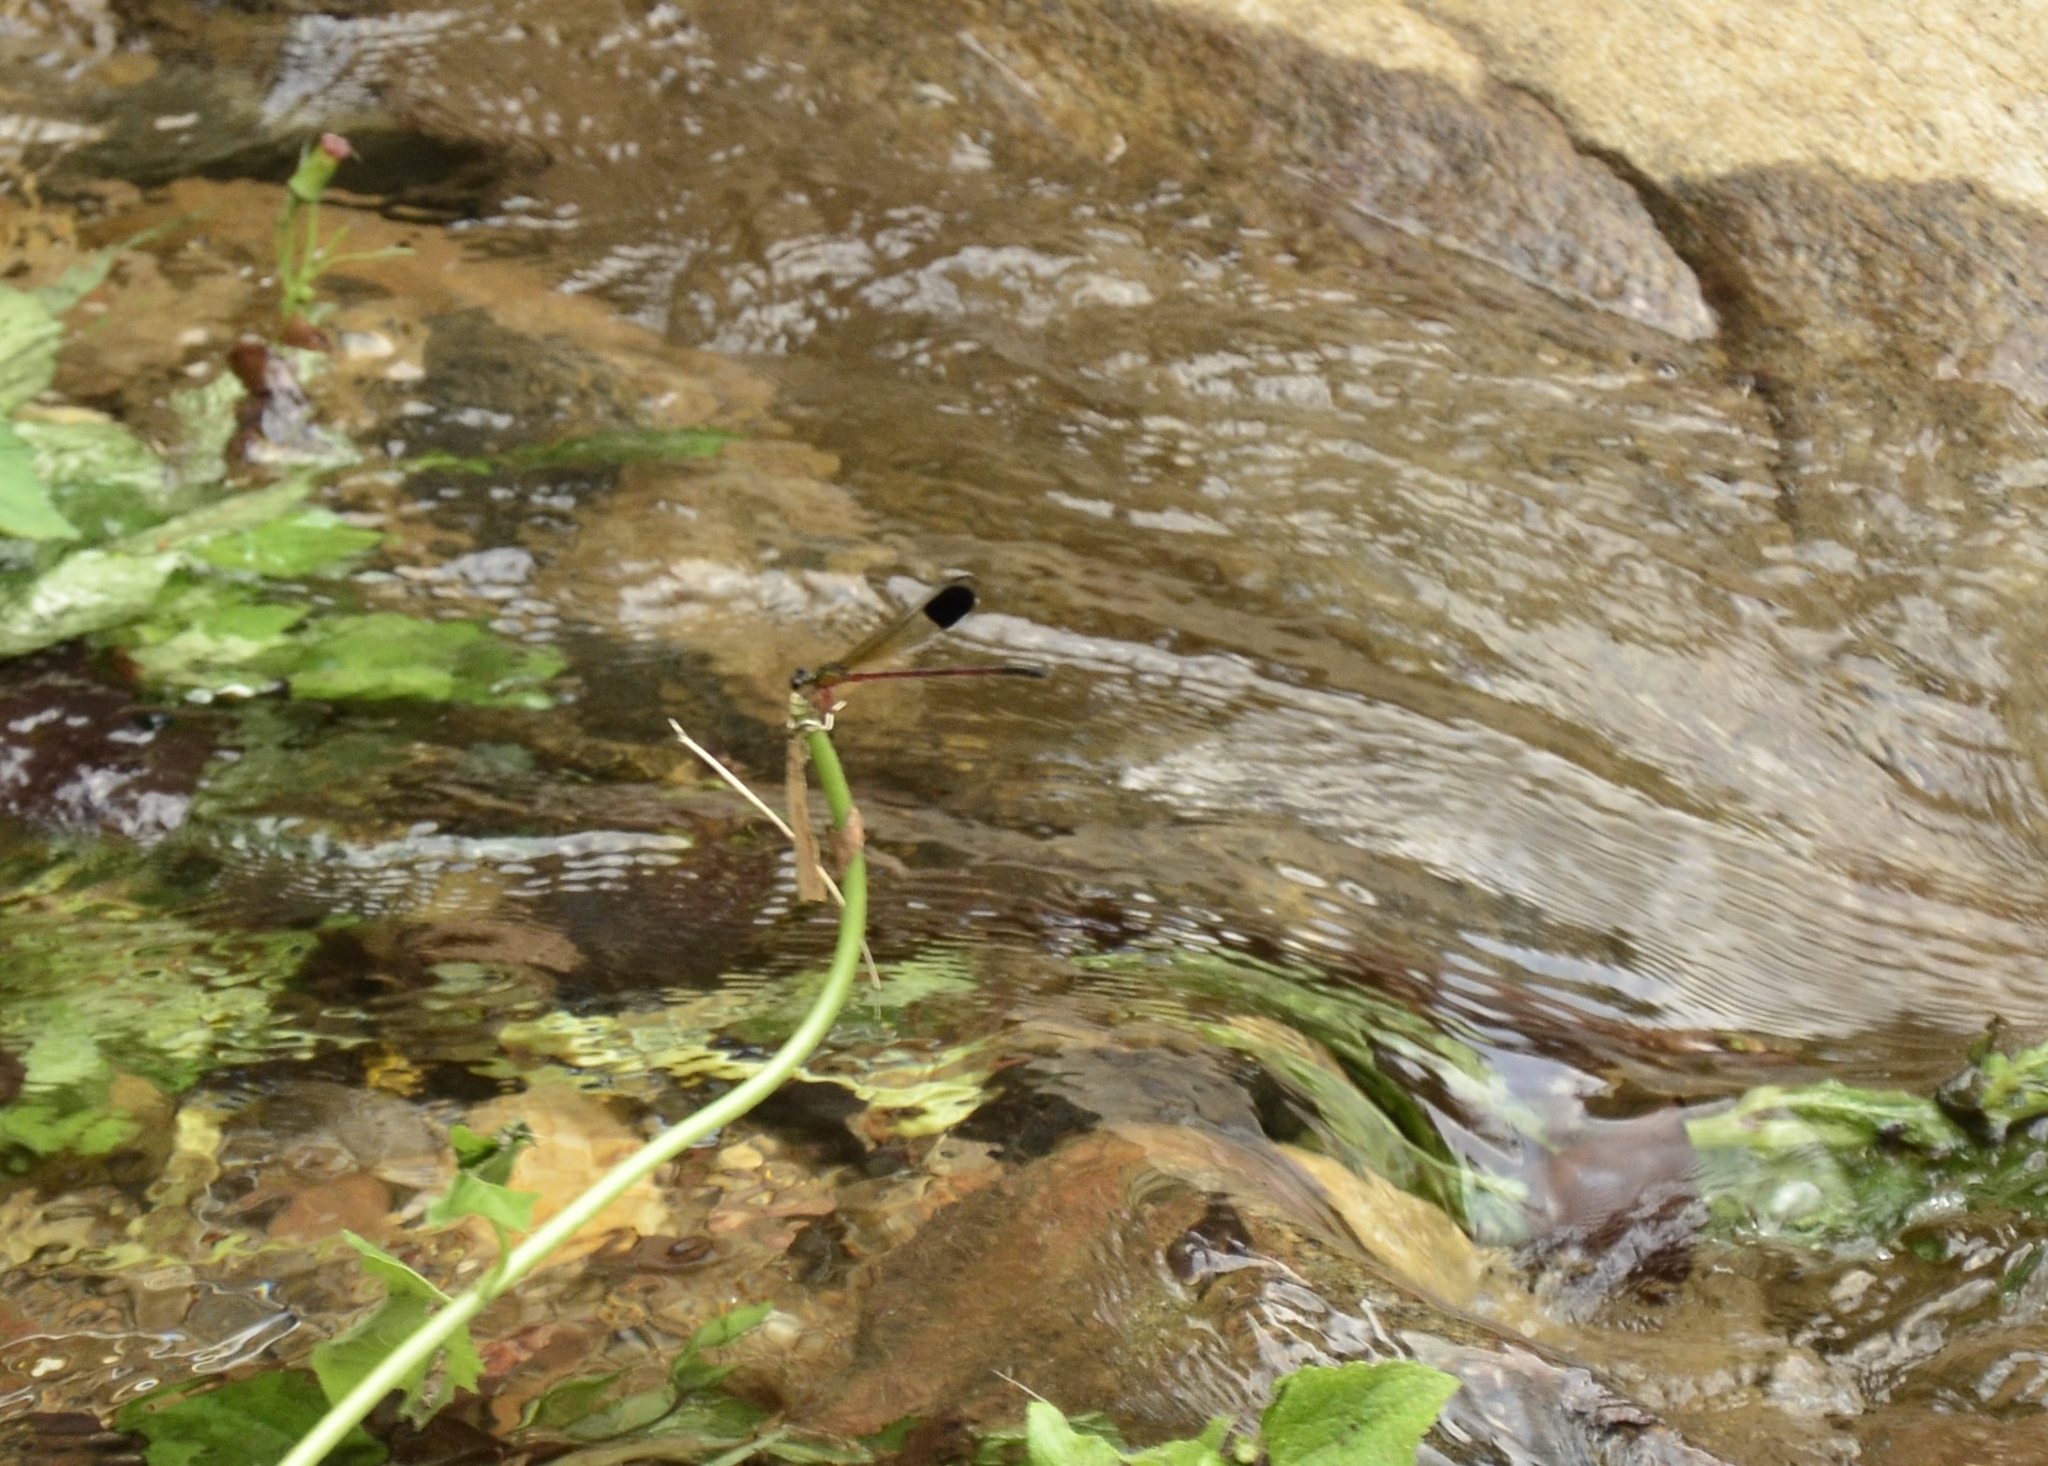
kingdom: Animalia
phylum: Arthropoda
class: Insecta
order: Odonata
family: Euphaeidae
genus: Euphaea
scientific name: Euphaea fraseri
